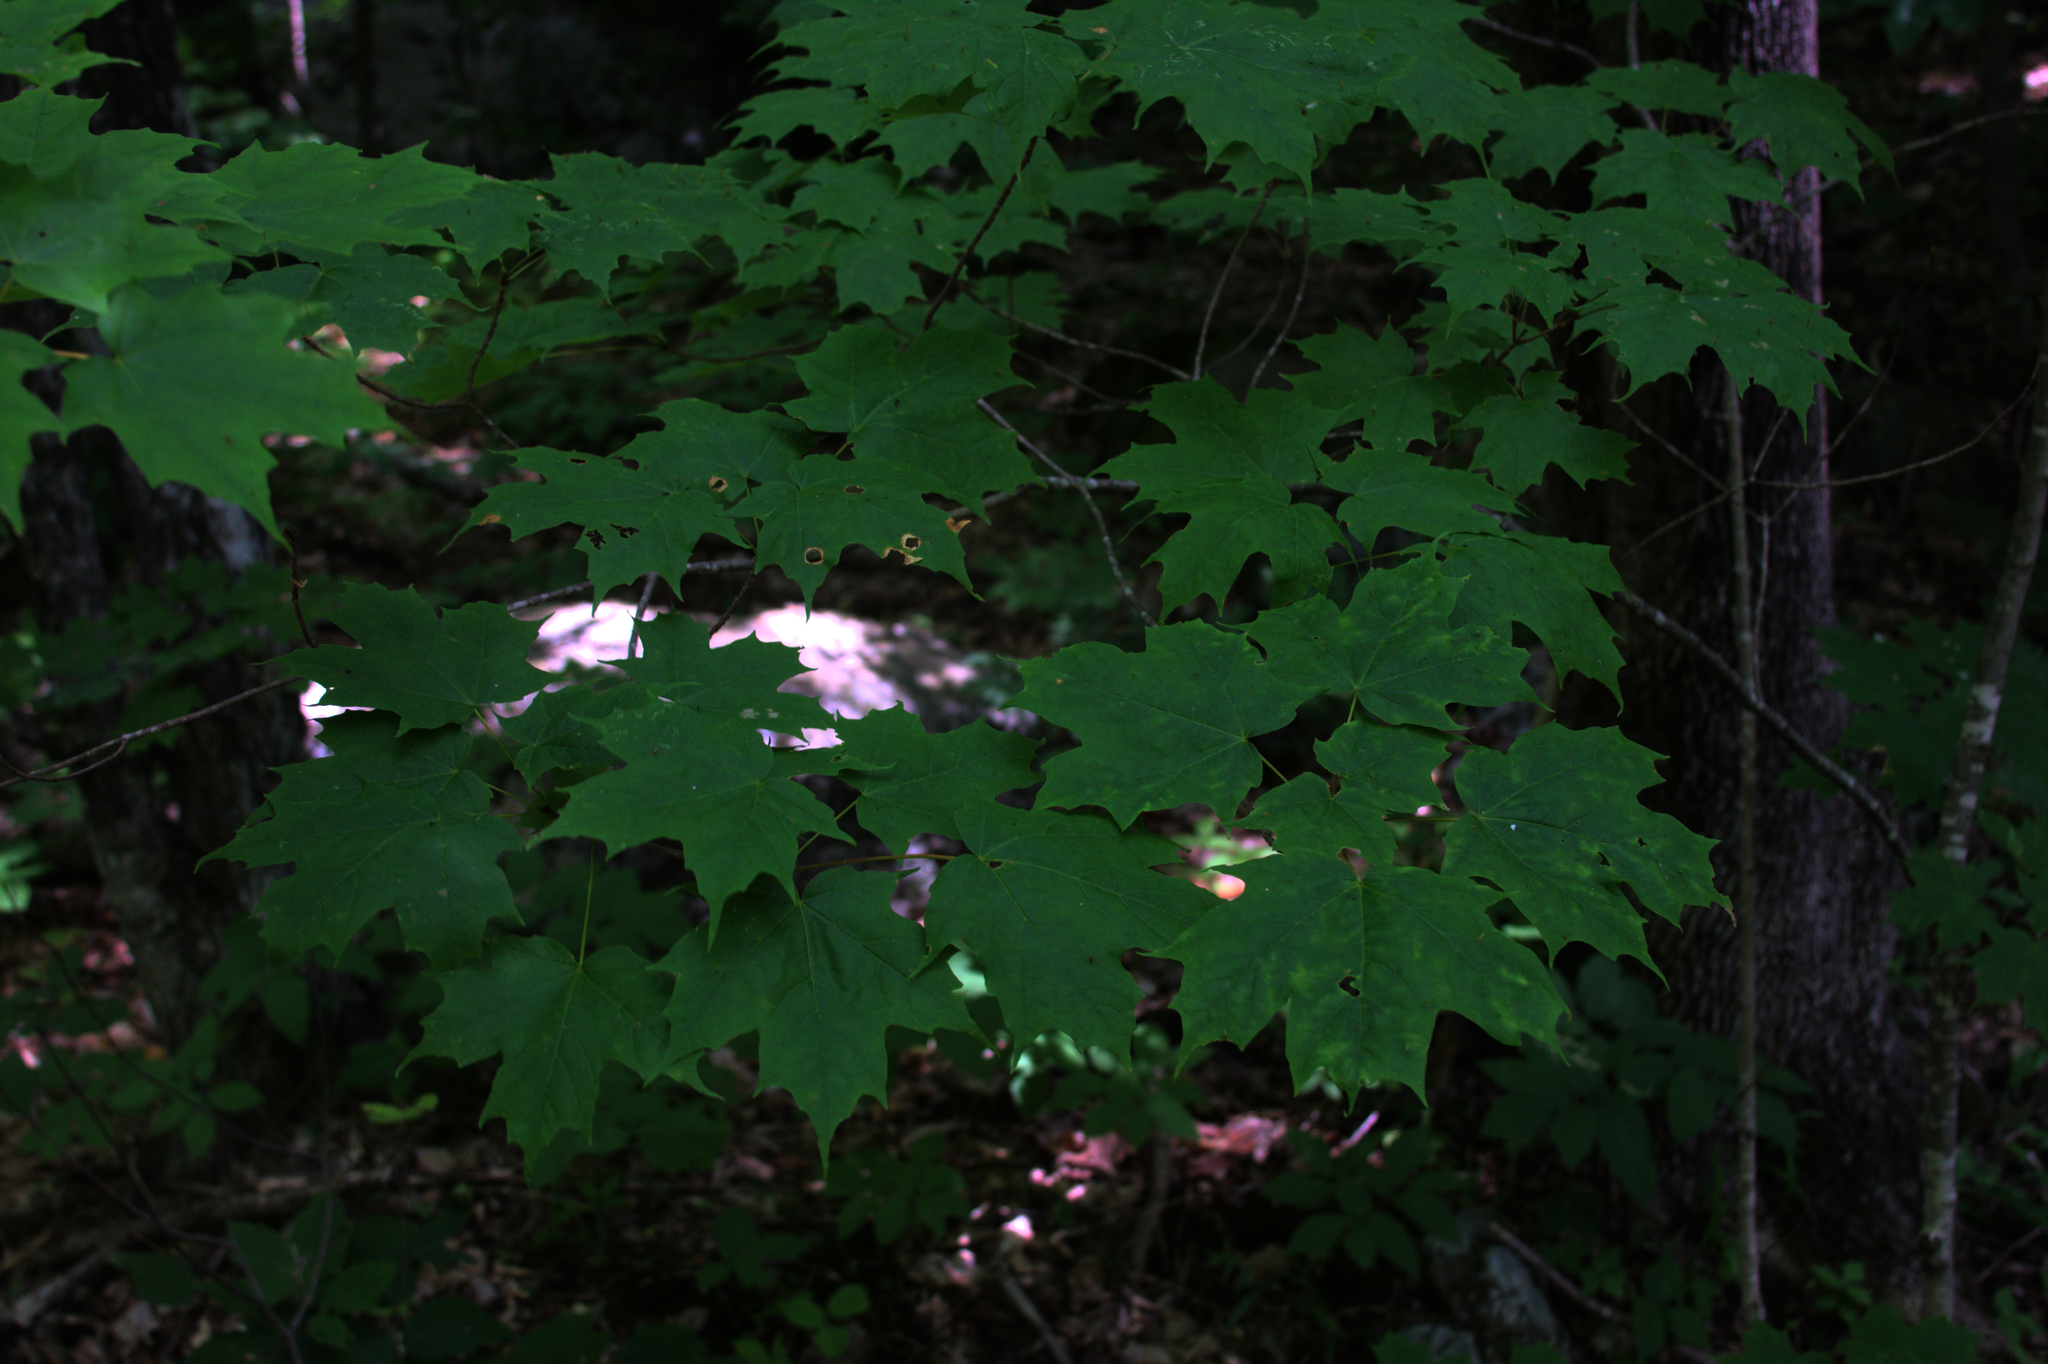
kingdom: Plantae
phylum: Tracheophyta
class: Magnoliopsida
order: Sapindales
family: Sapindaceae
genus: Acer
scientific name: Acer saccharum
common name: Sugar maple
